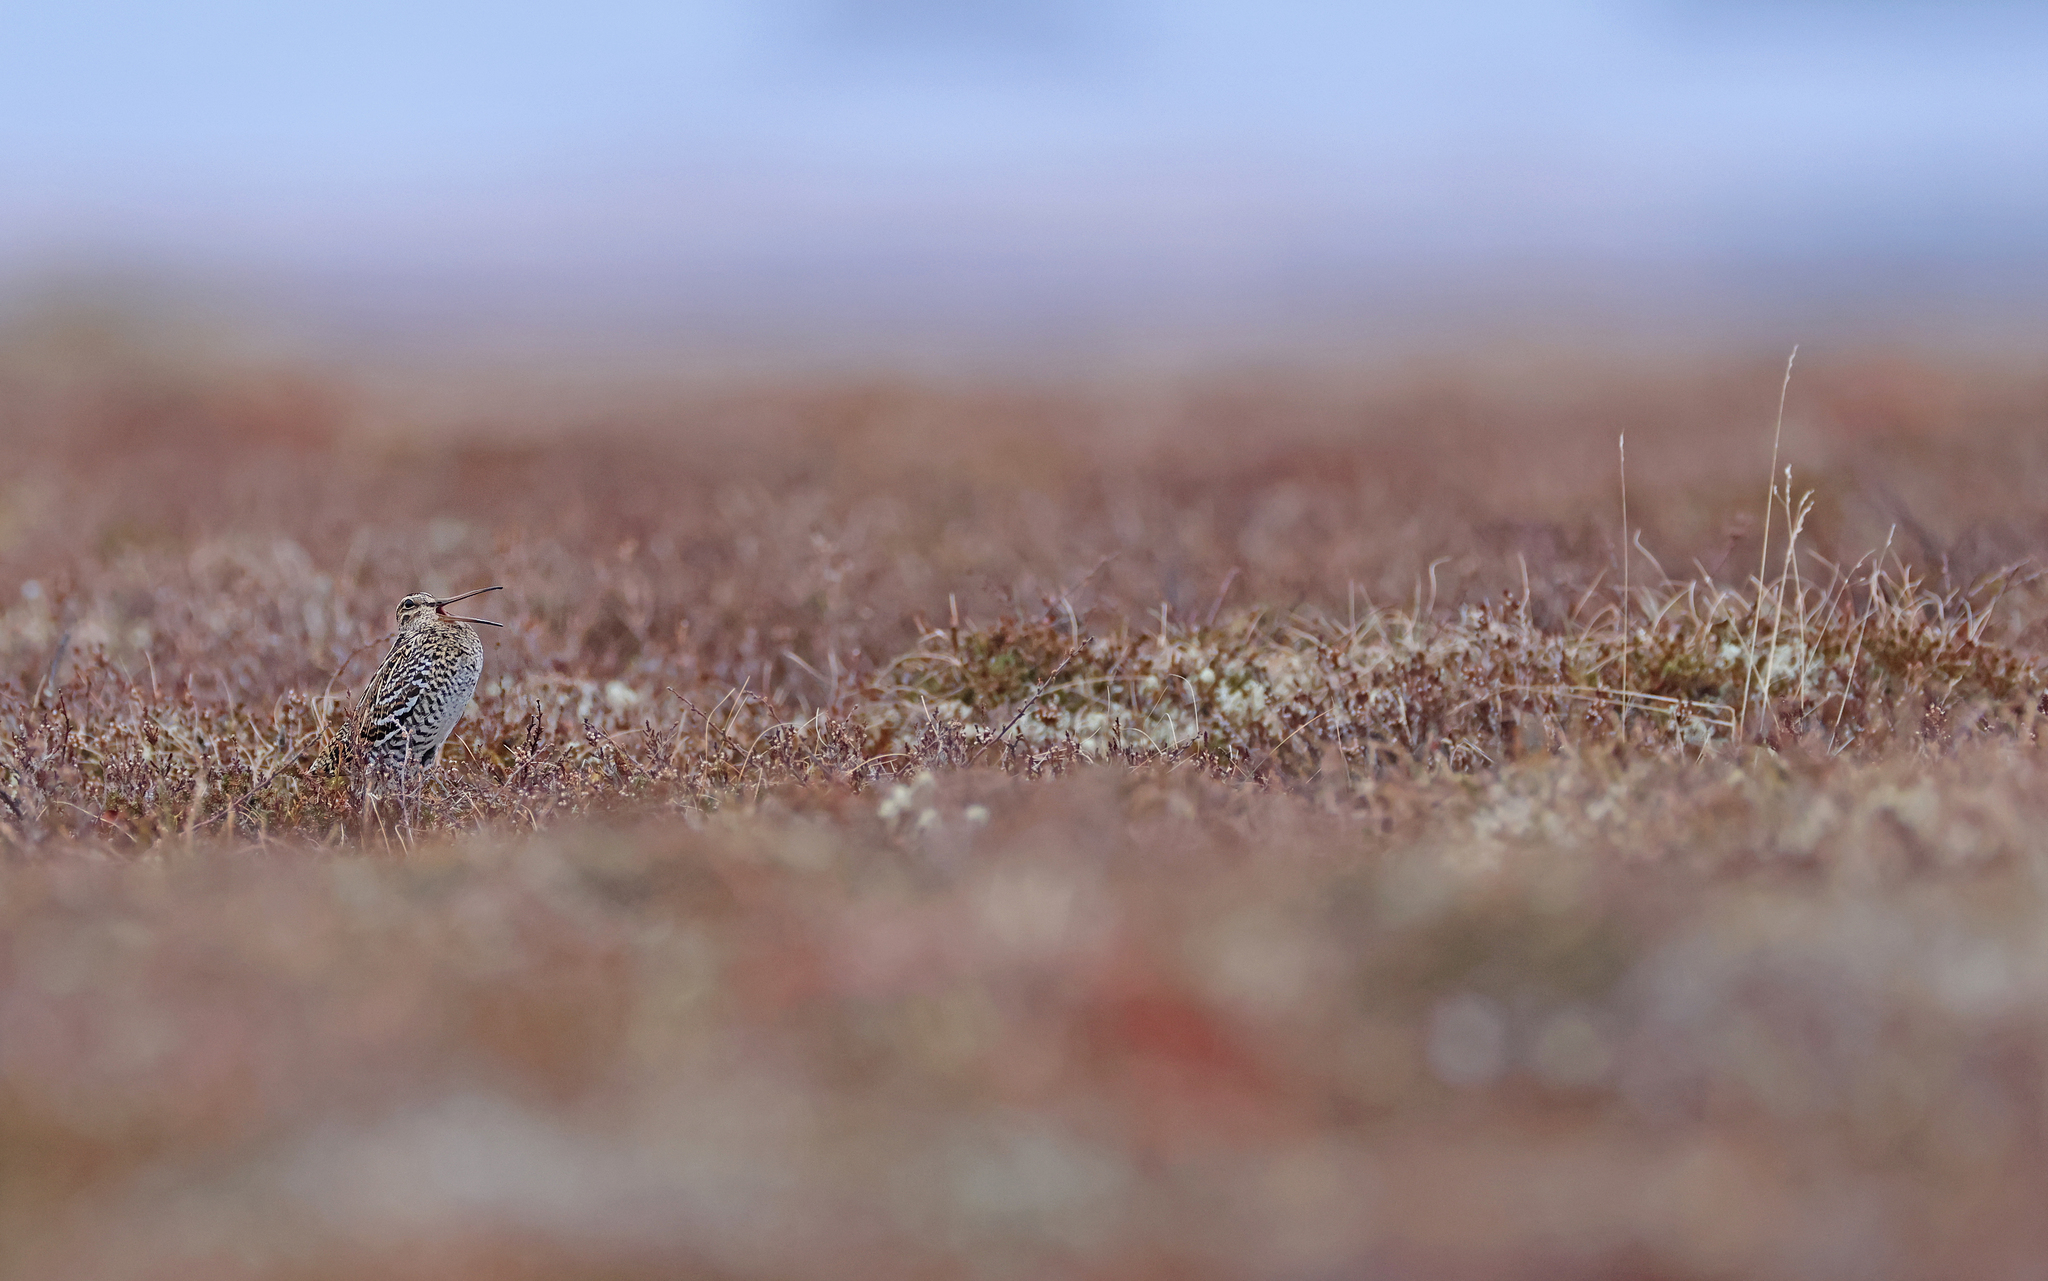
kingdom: Animalia
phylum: Chordata
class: Aves
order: Charadriiformes
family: Scolopacidae
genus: Gallinago
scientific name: Gallinago media
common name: Great snipe
